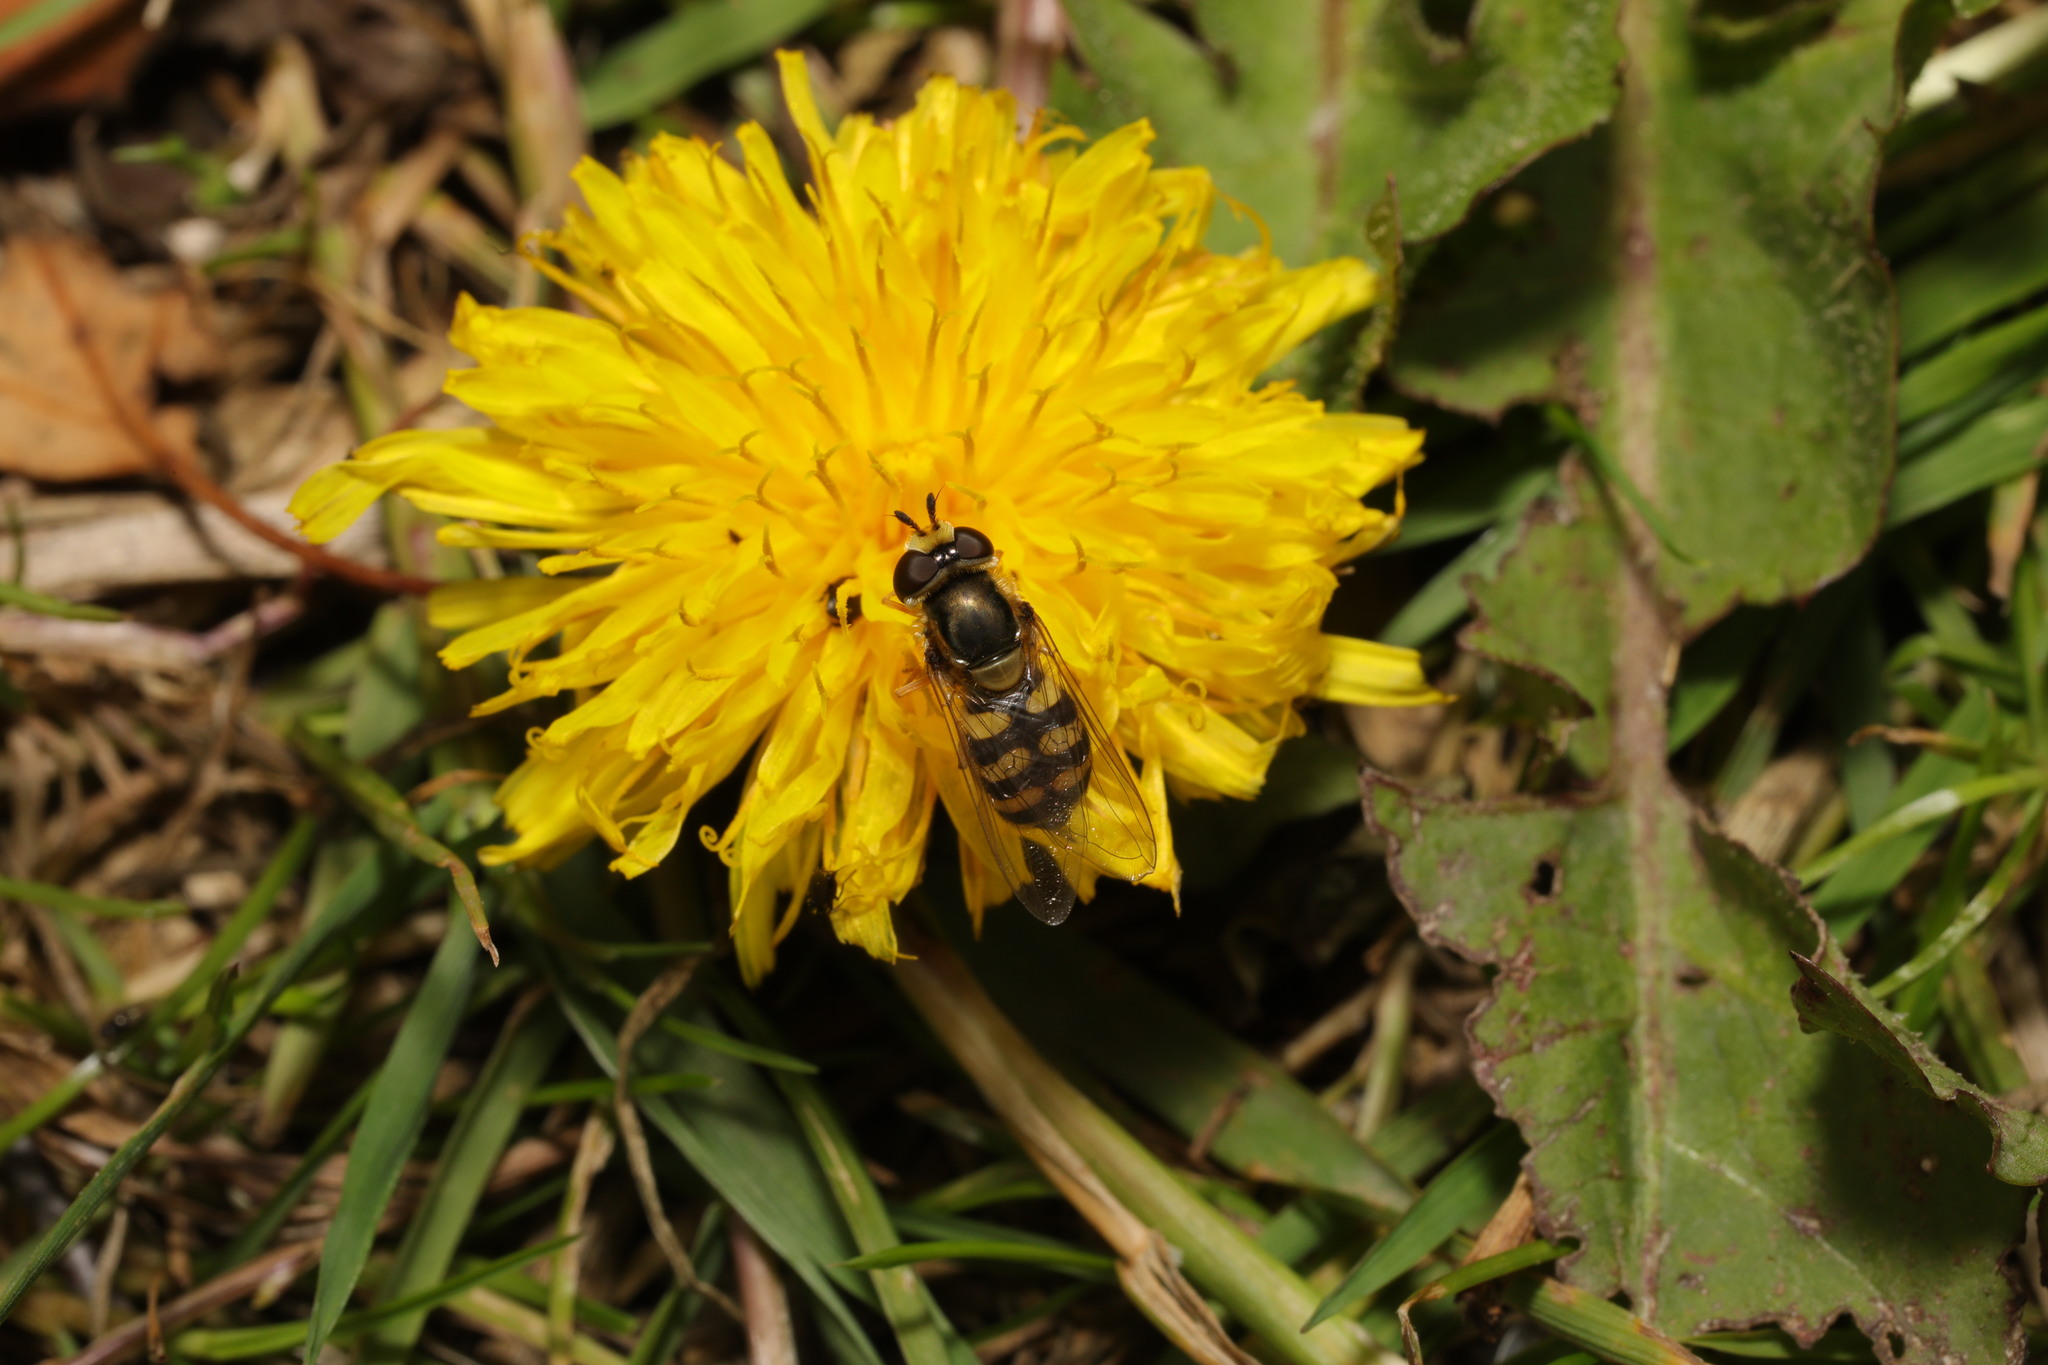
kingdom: Animalia
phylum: Arthropoda
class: Insecta
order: Diptera
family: Syrphidae
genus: Eupeodes
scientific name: Eupeodes corollae
